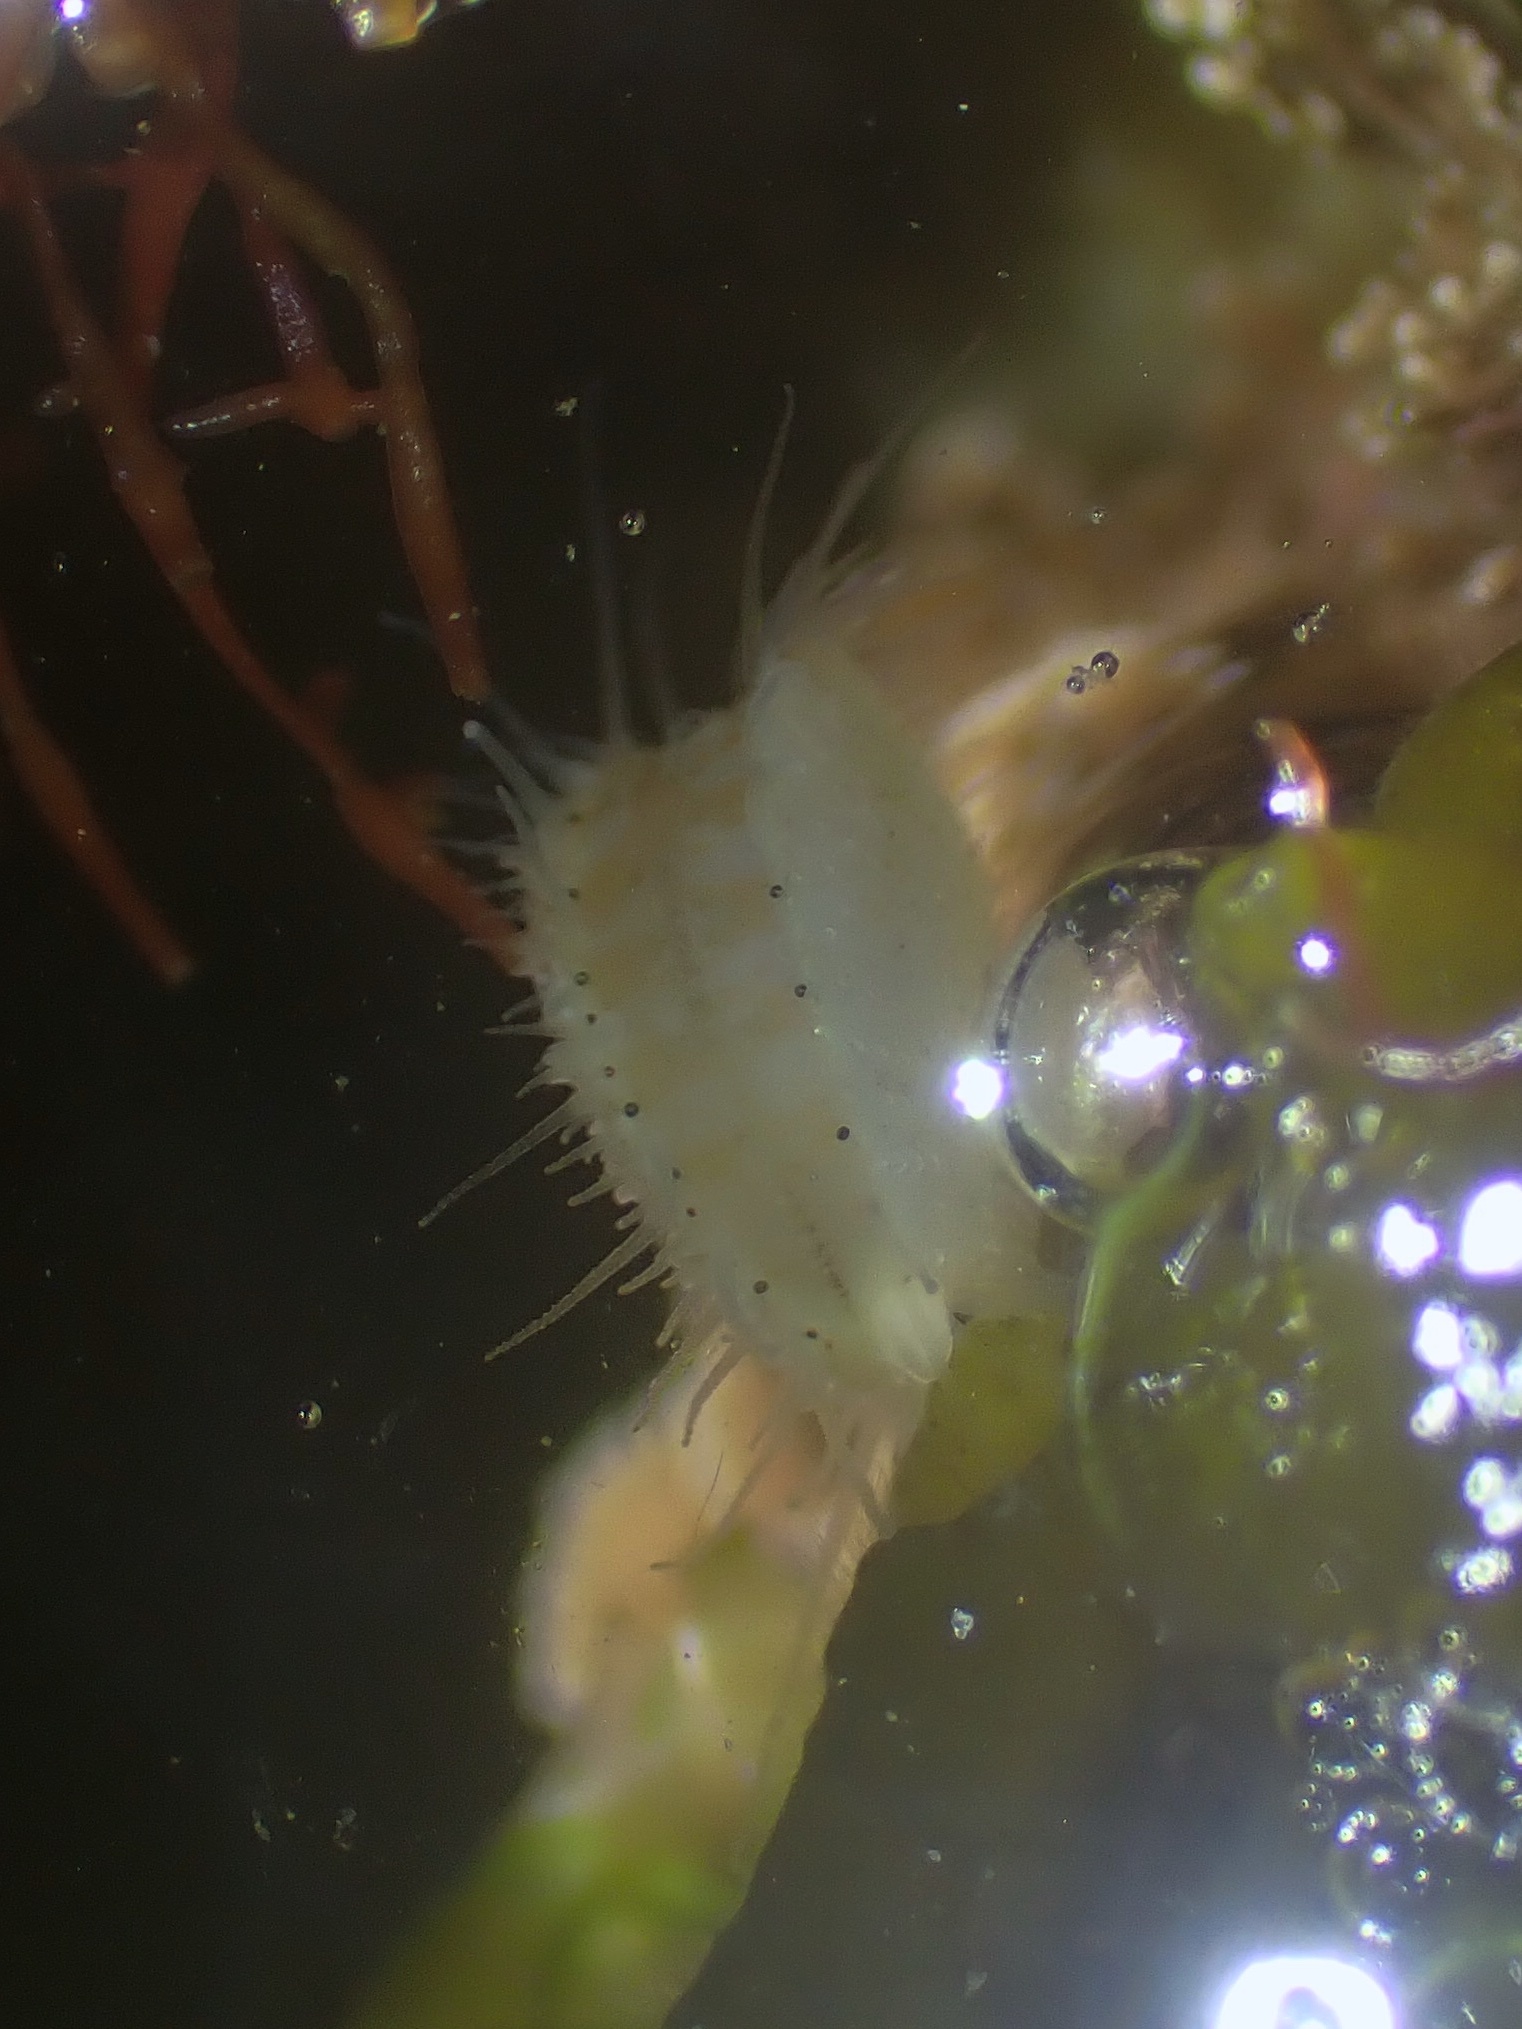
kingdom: Animalia
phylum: Mollusca
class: Bivalvia
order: Pectinida
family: Pectinidae
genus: Crassadoma
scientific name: Crassadoma gigantea
